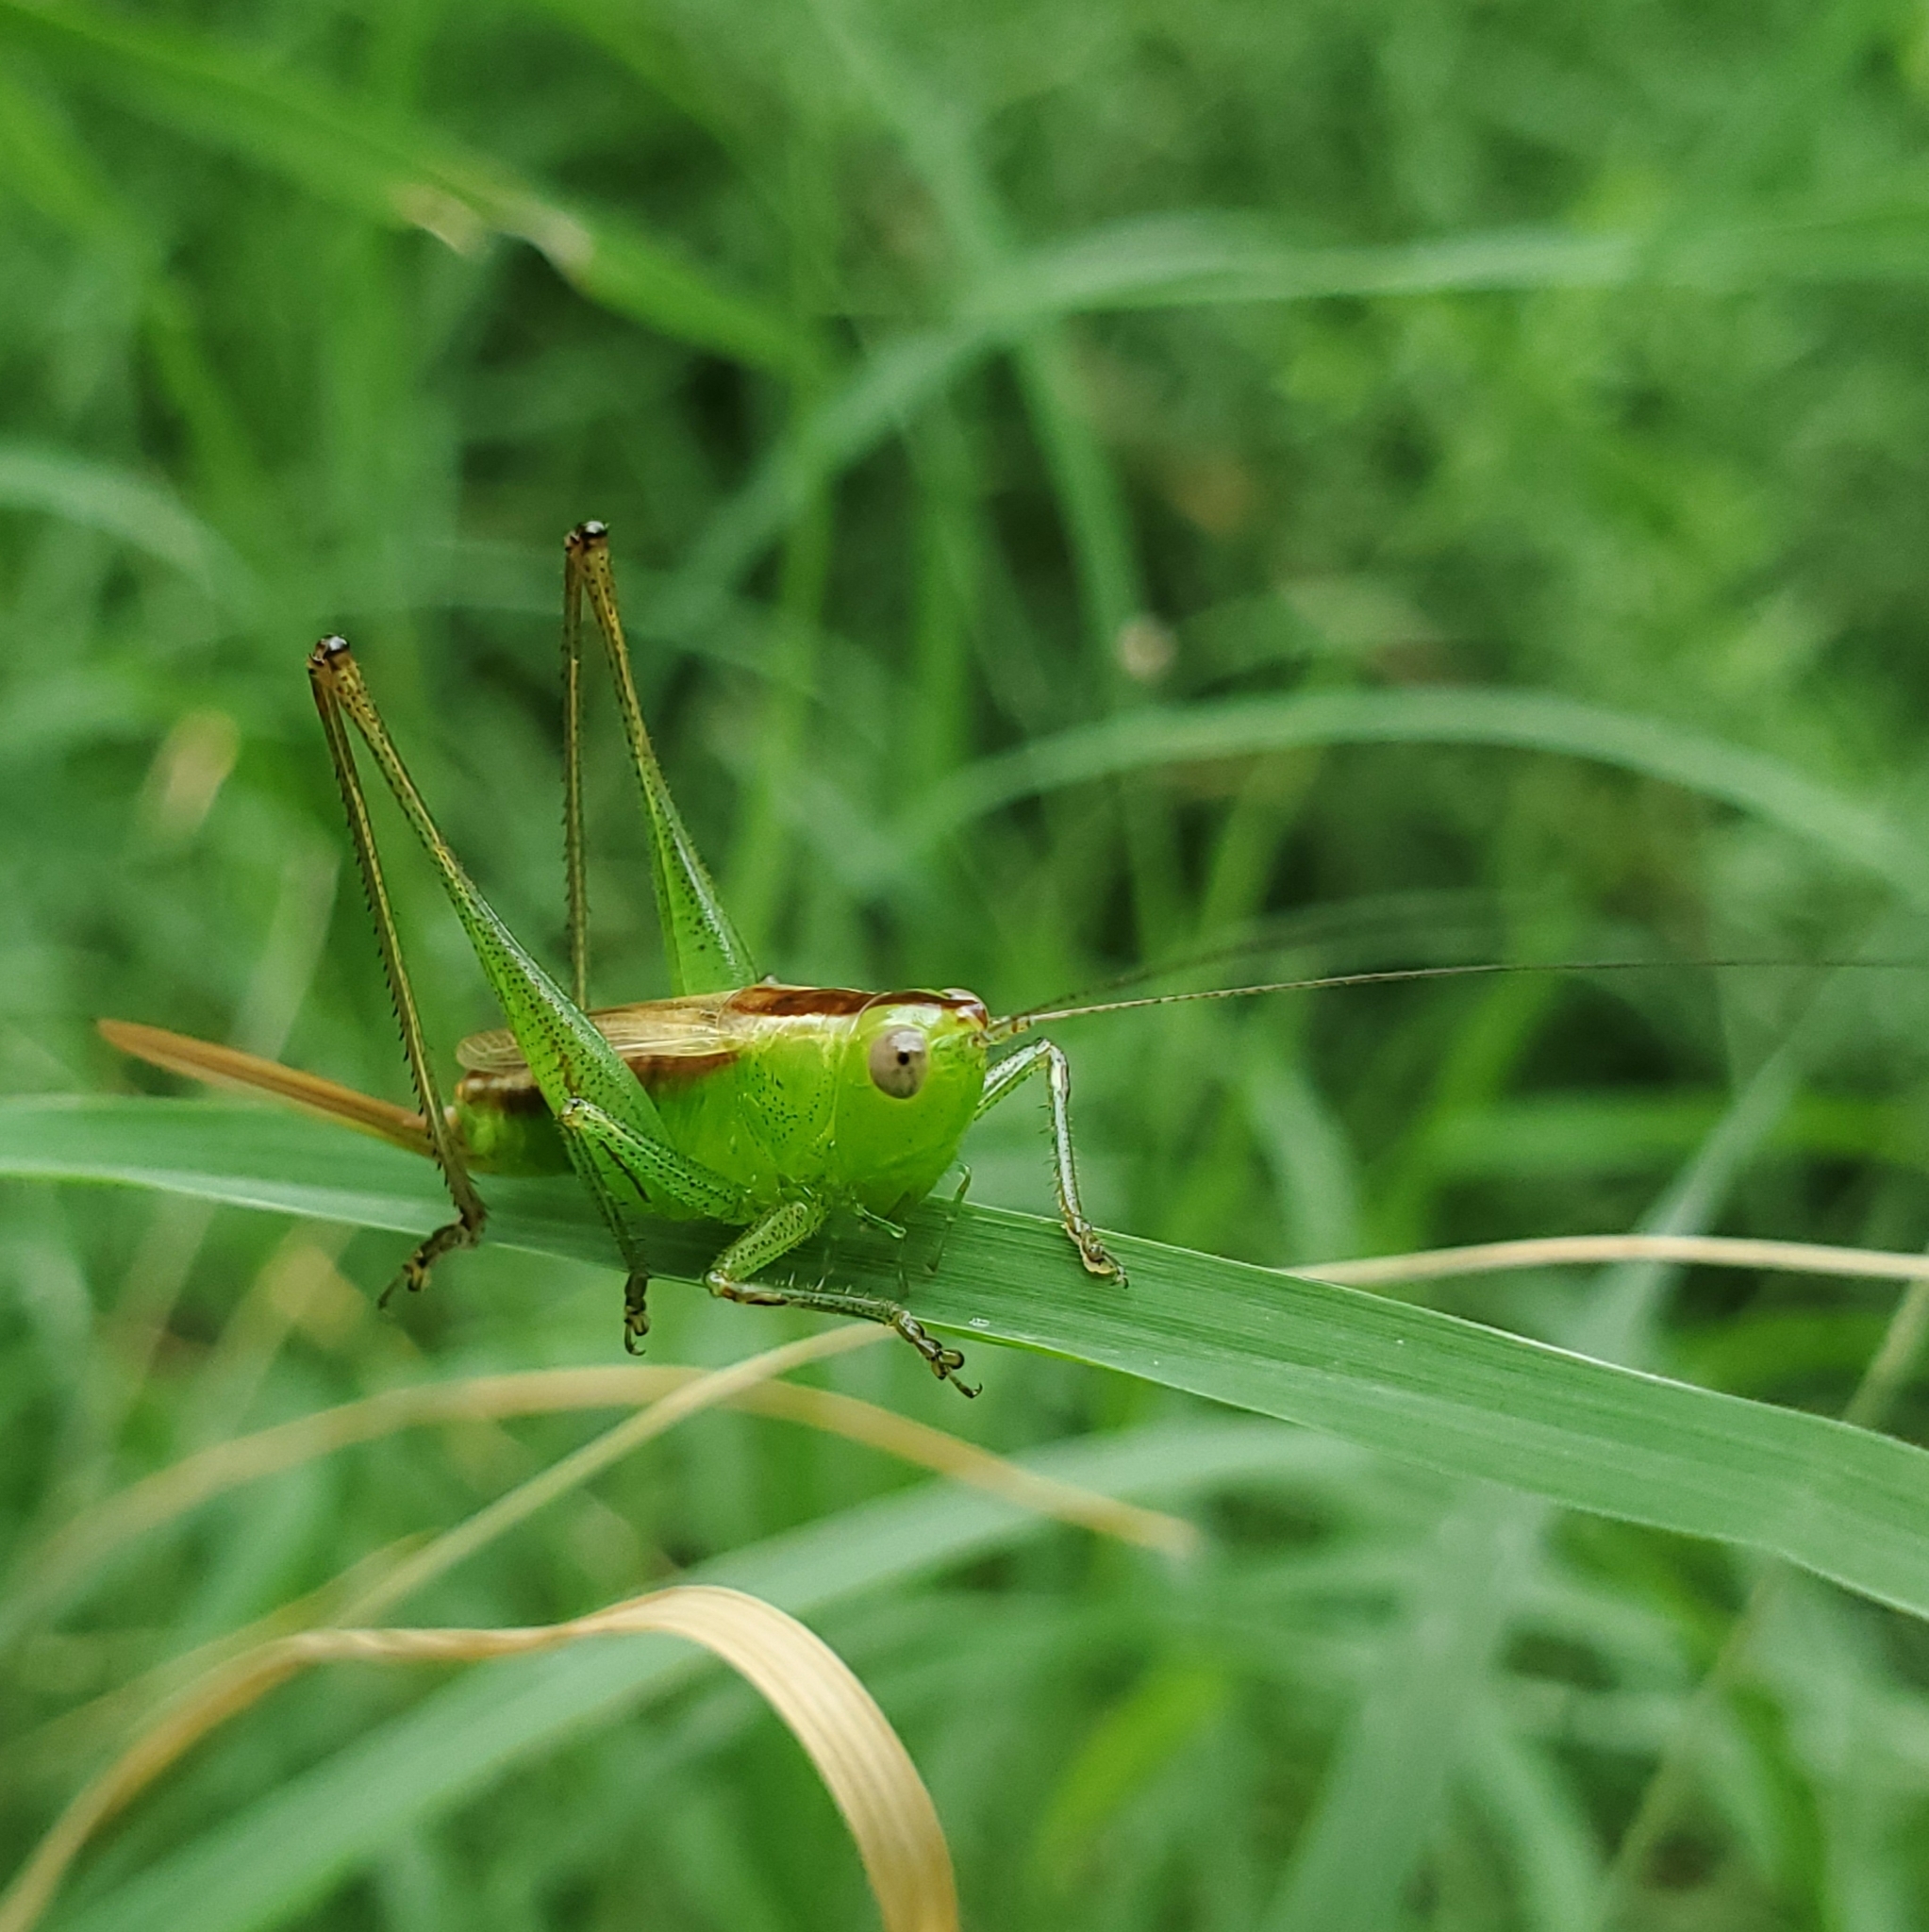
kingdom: Animalia
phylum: Arthropoda
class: Insecta
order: Orthoptera
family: Tettigoniidae
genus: Conocephalus
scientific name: Conocephalus brevipennis
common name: Short-winged meadow katydid
